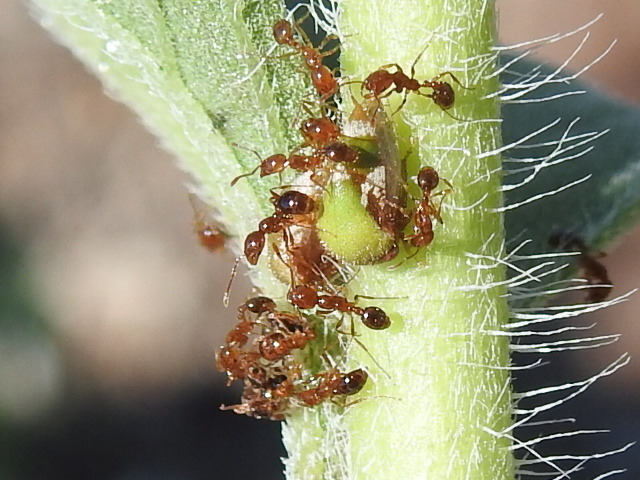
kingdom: Animalia
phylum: Arthropoda
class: Insecta
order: Hymenoptera
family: Formicidae
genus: Solenopsis
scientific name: Solenopsis invicta
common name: Red imported fire ant
